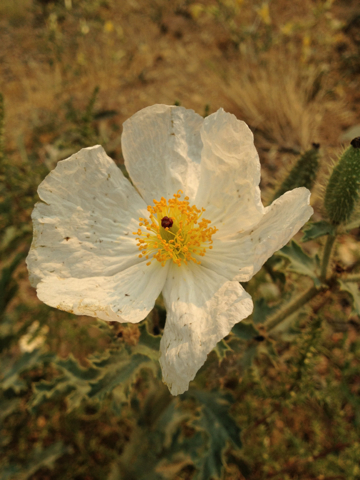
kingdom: Plantae
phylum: Tracheophyta
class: Magnoliopsida
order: Ranunculales
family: Papaveraceae
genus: Argemone
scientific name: Argemone munita
